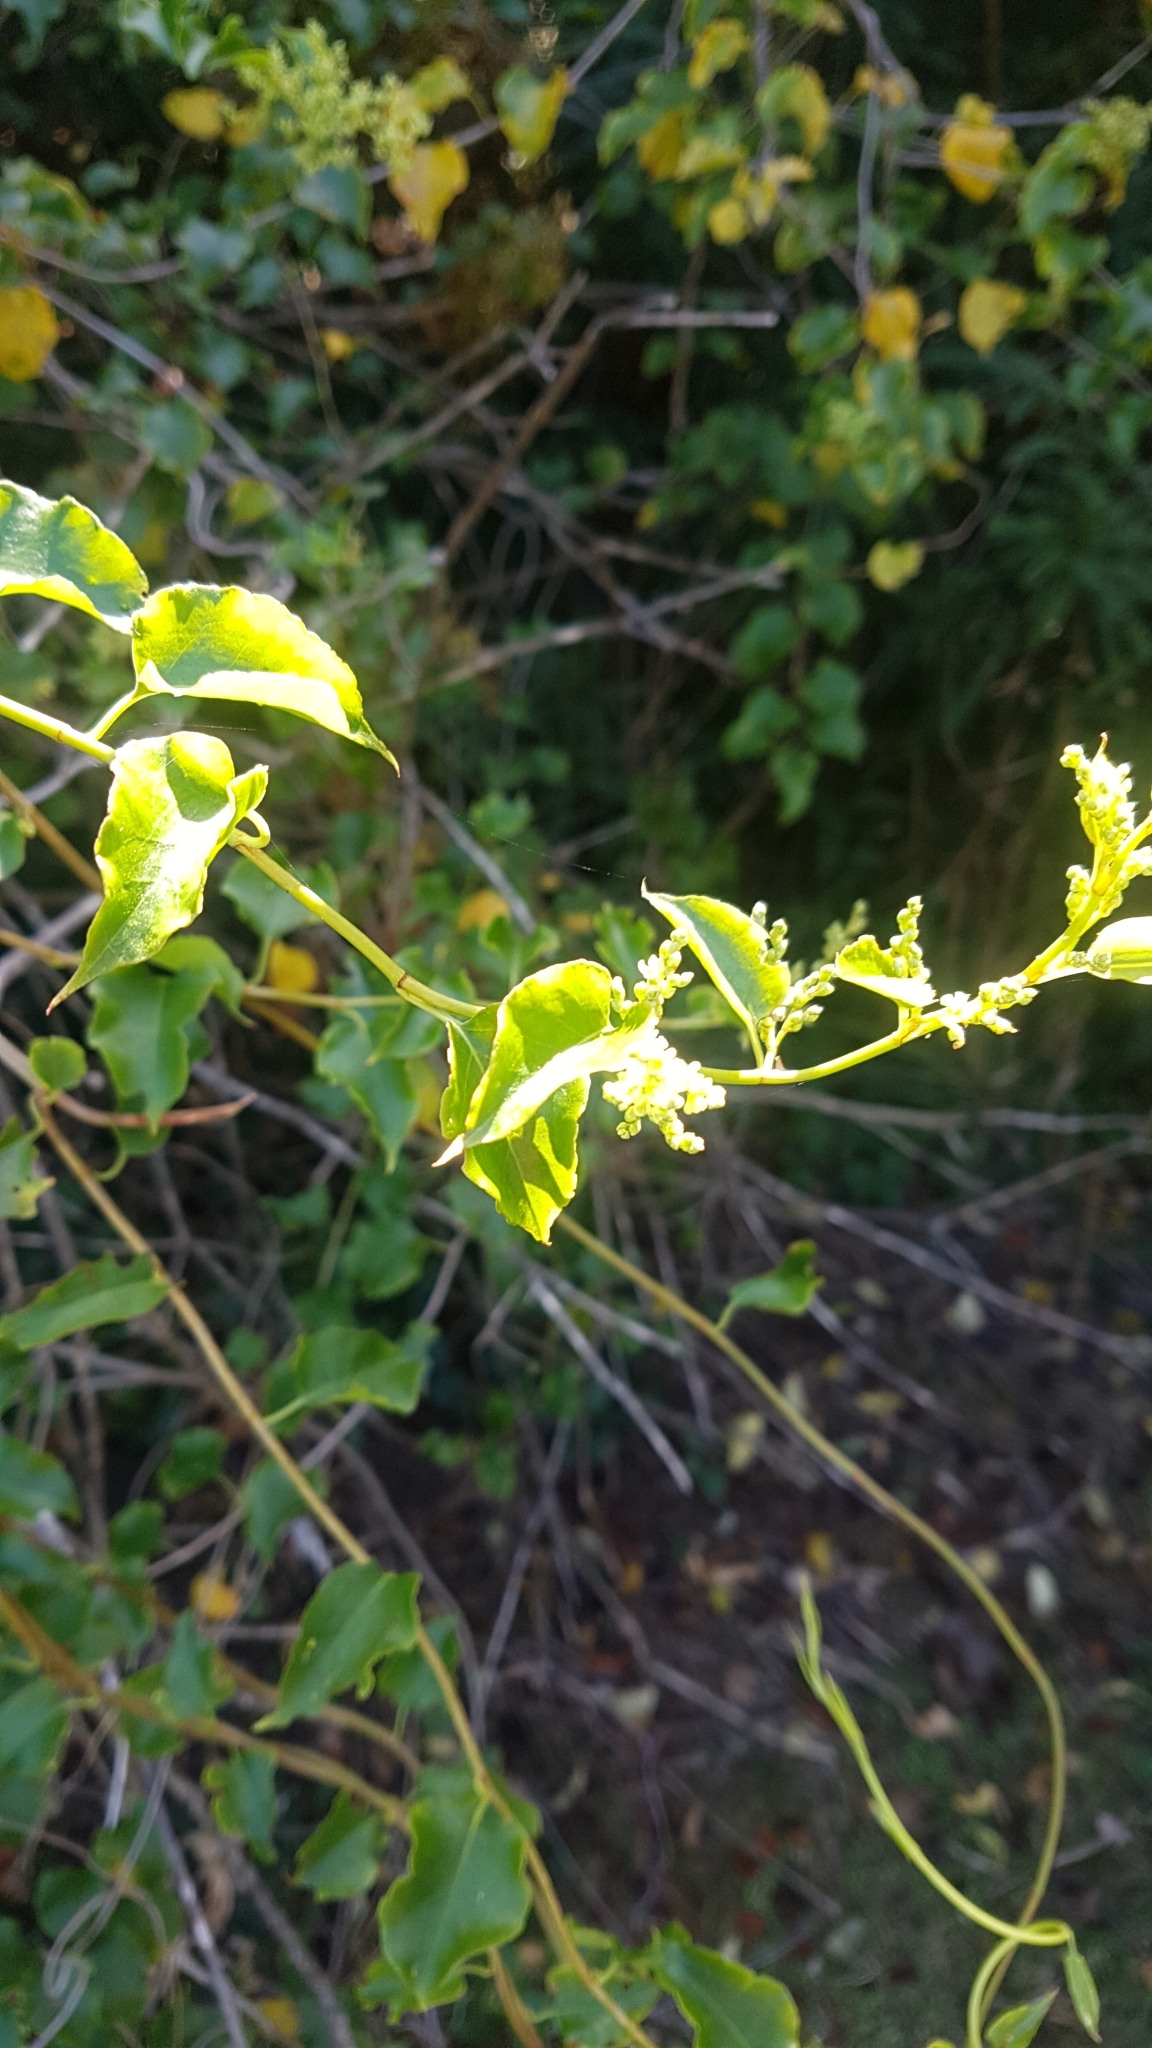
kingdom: Plantae
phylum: Tracheophyta
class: Magnoliopsida
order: Caryophyllales
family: Polygonaceae
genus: Muehlenbeckia
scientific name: Muehlenbeckia australis
